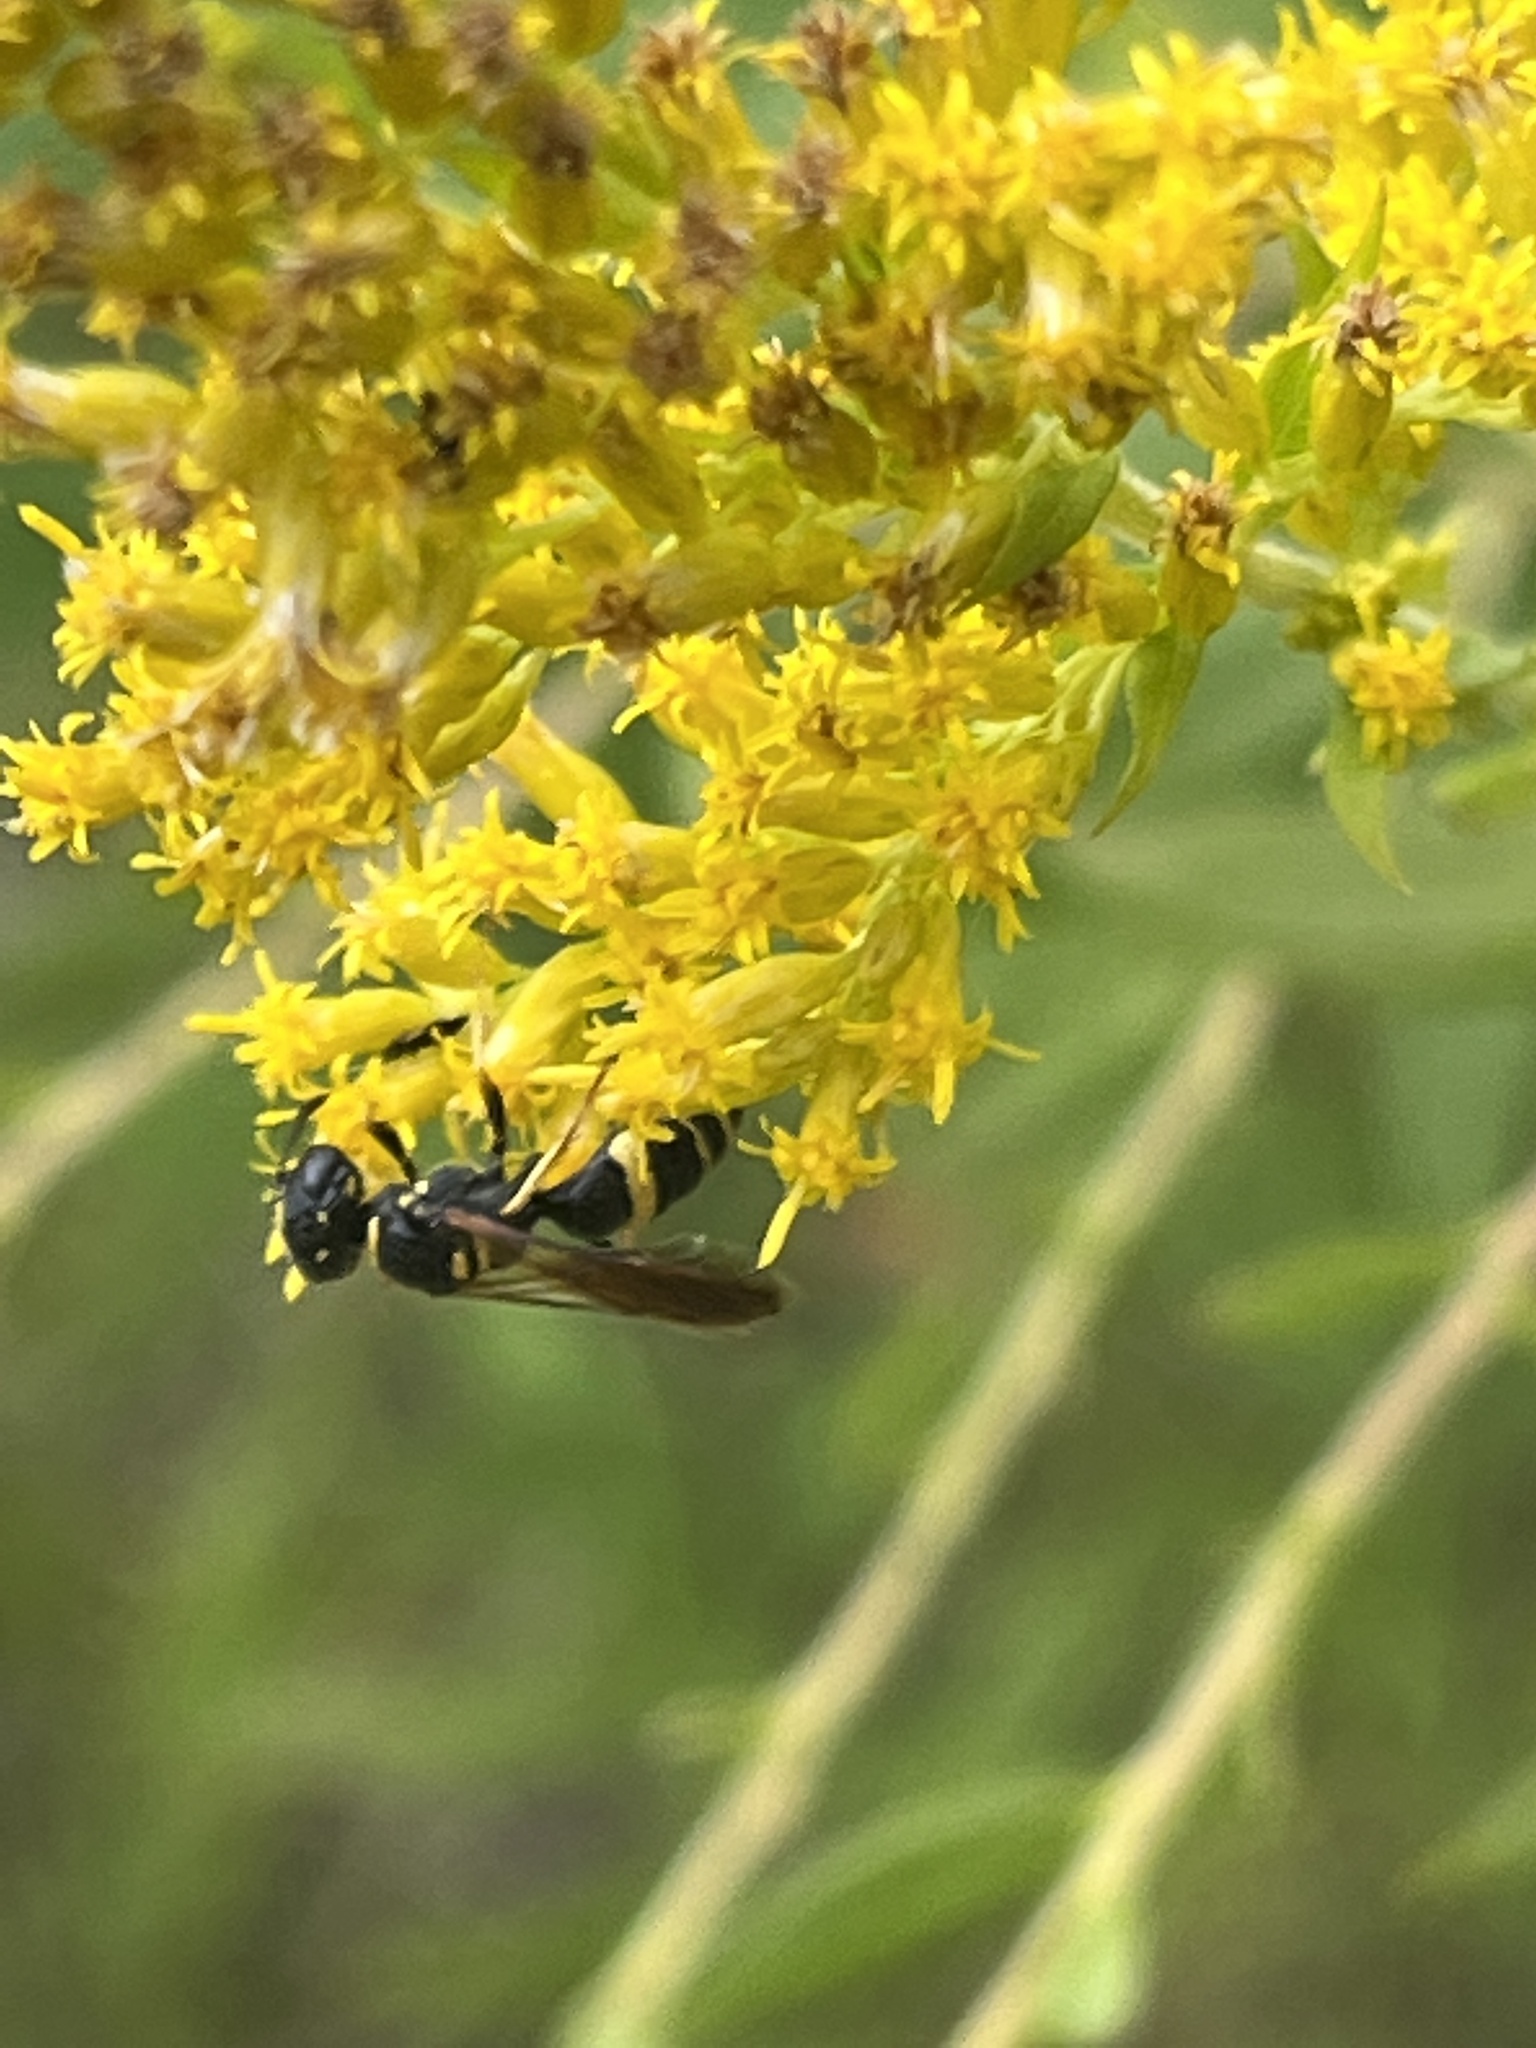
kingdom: Animalia
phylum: Arthropoda
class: Insecta
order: Hymenoptera
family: Crabronidae
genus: Philanthus
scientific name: Philanthus gibbosus
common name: Humped beewolf
